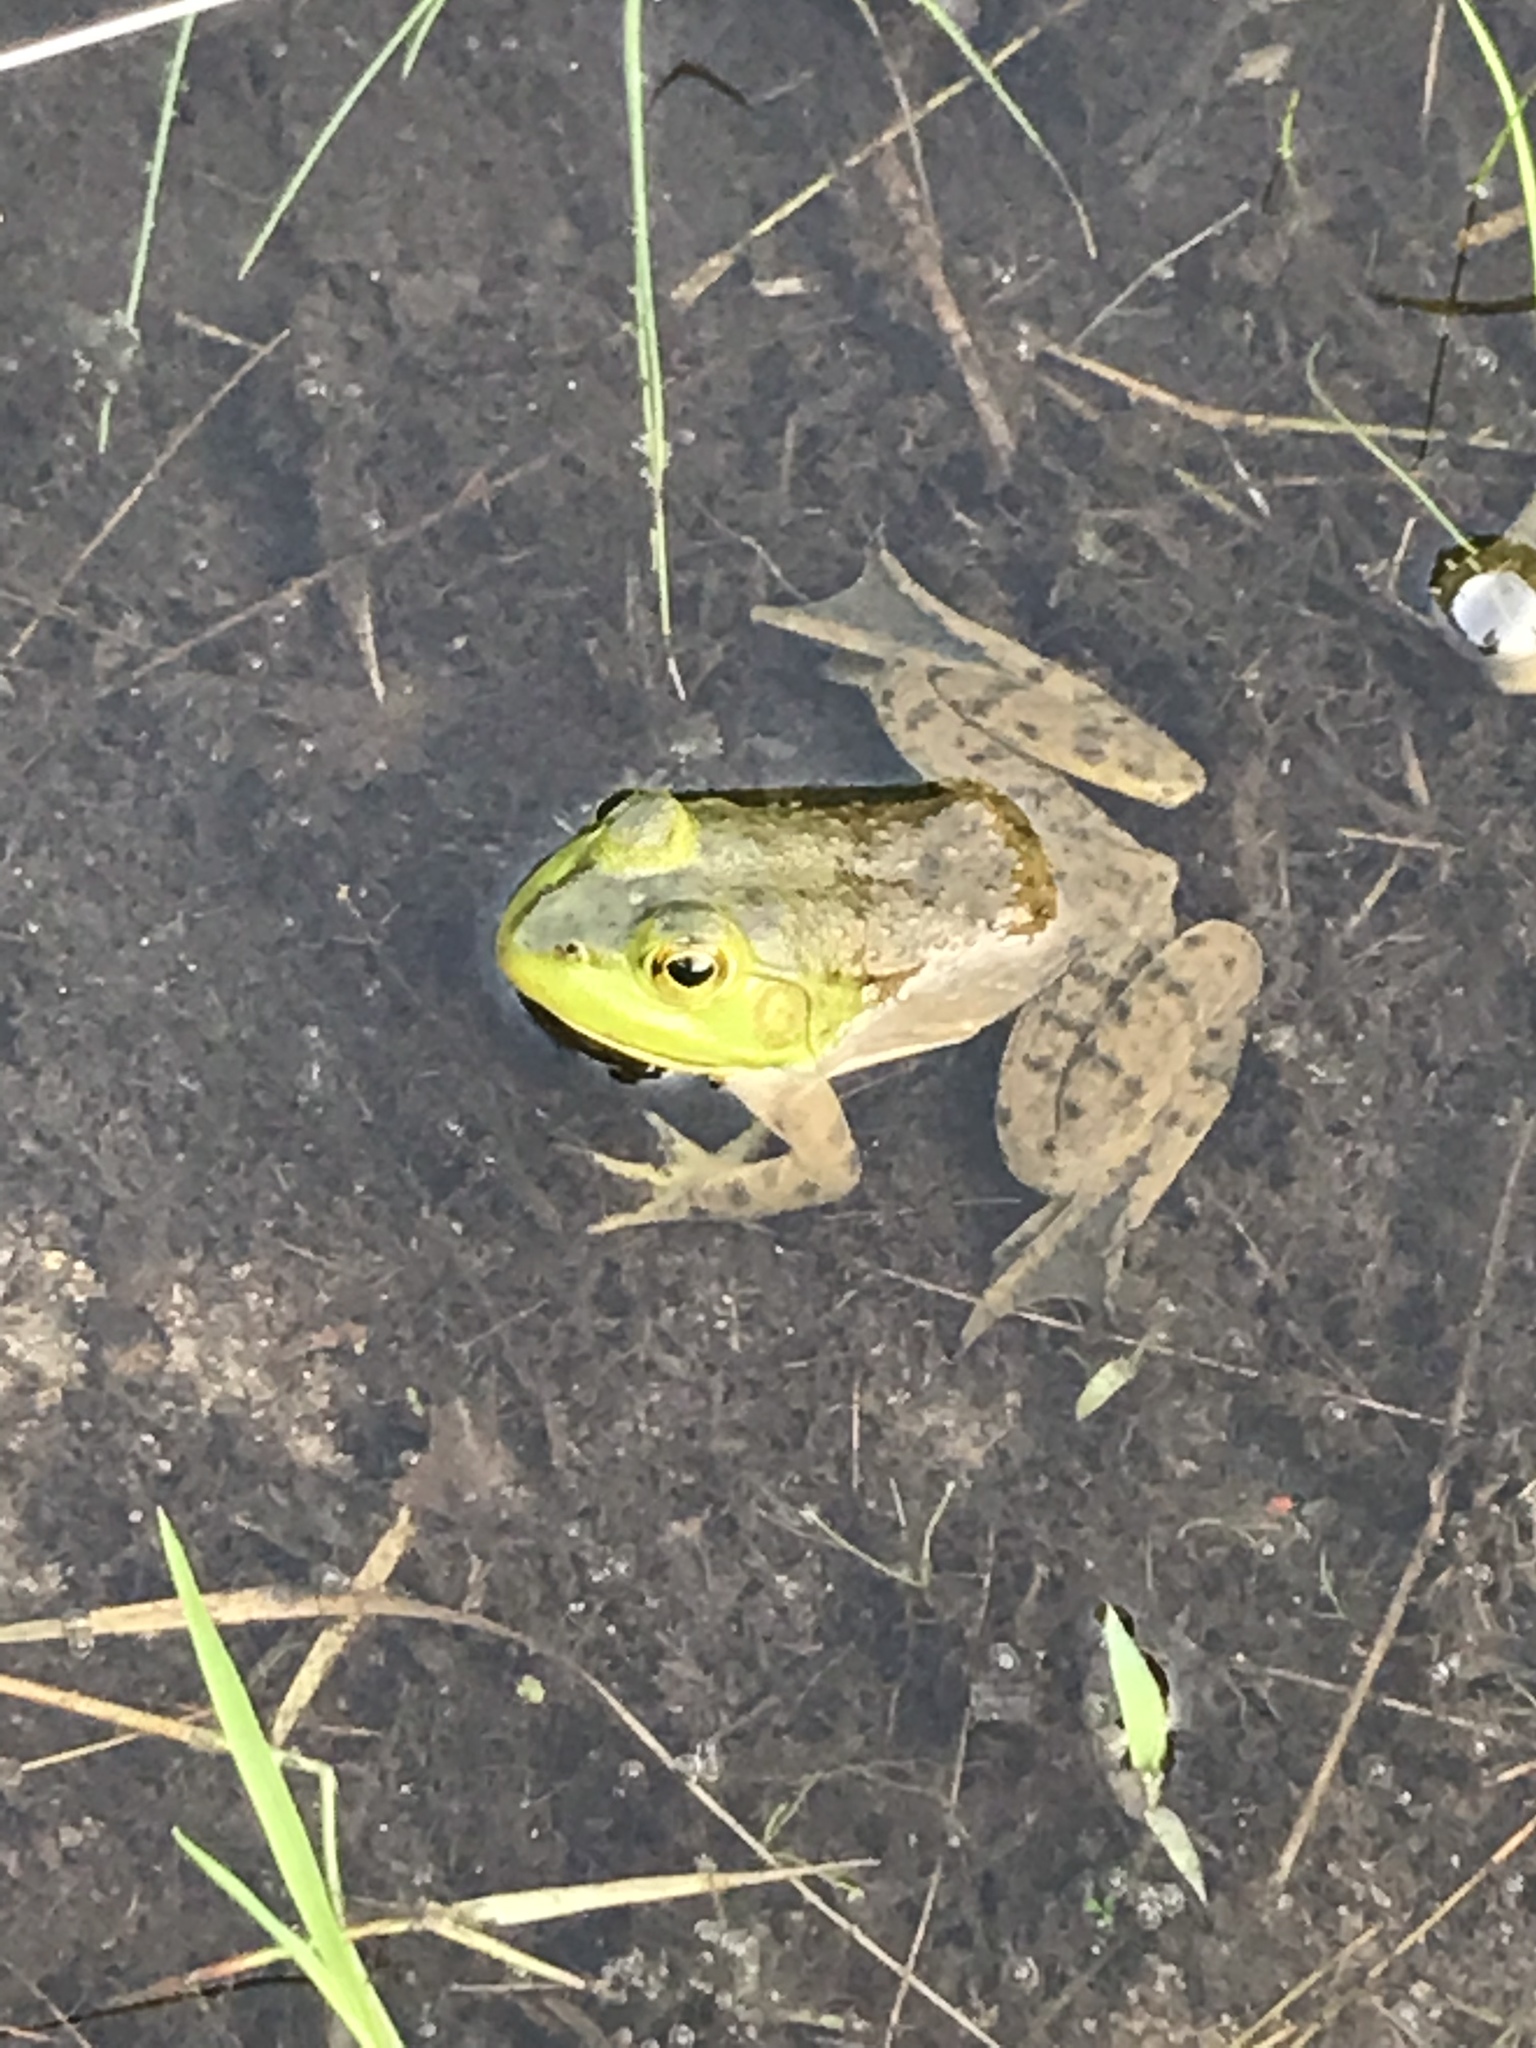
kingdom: Animalia
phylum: Chordata
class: Amphibia
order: Anura
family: Ranidae
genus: Lithobates
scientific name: Lithobates catesbeianus
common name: American bullfrog
